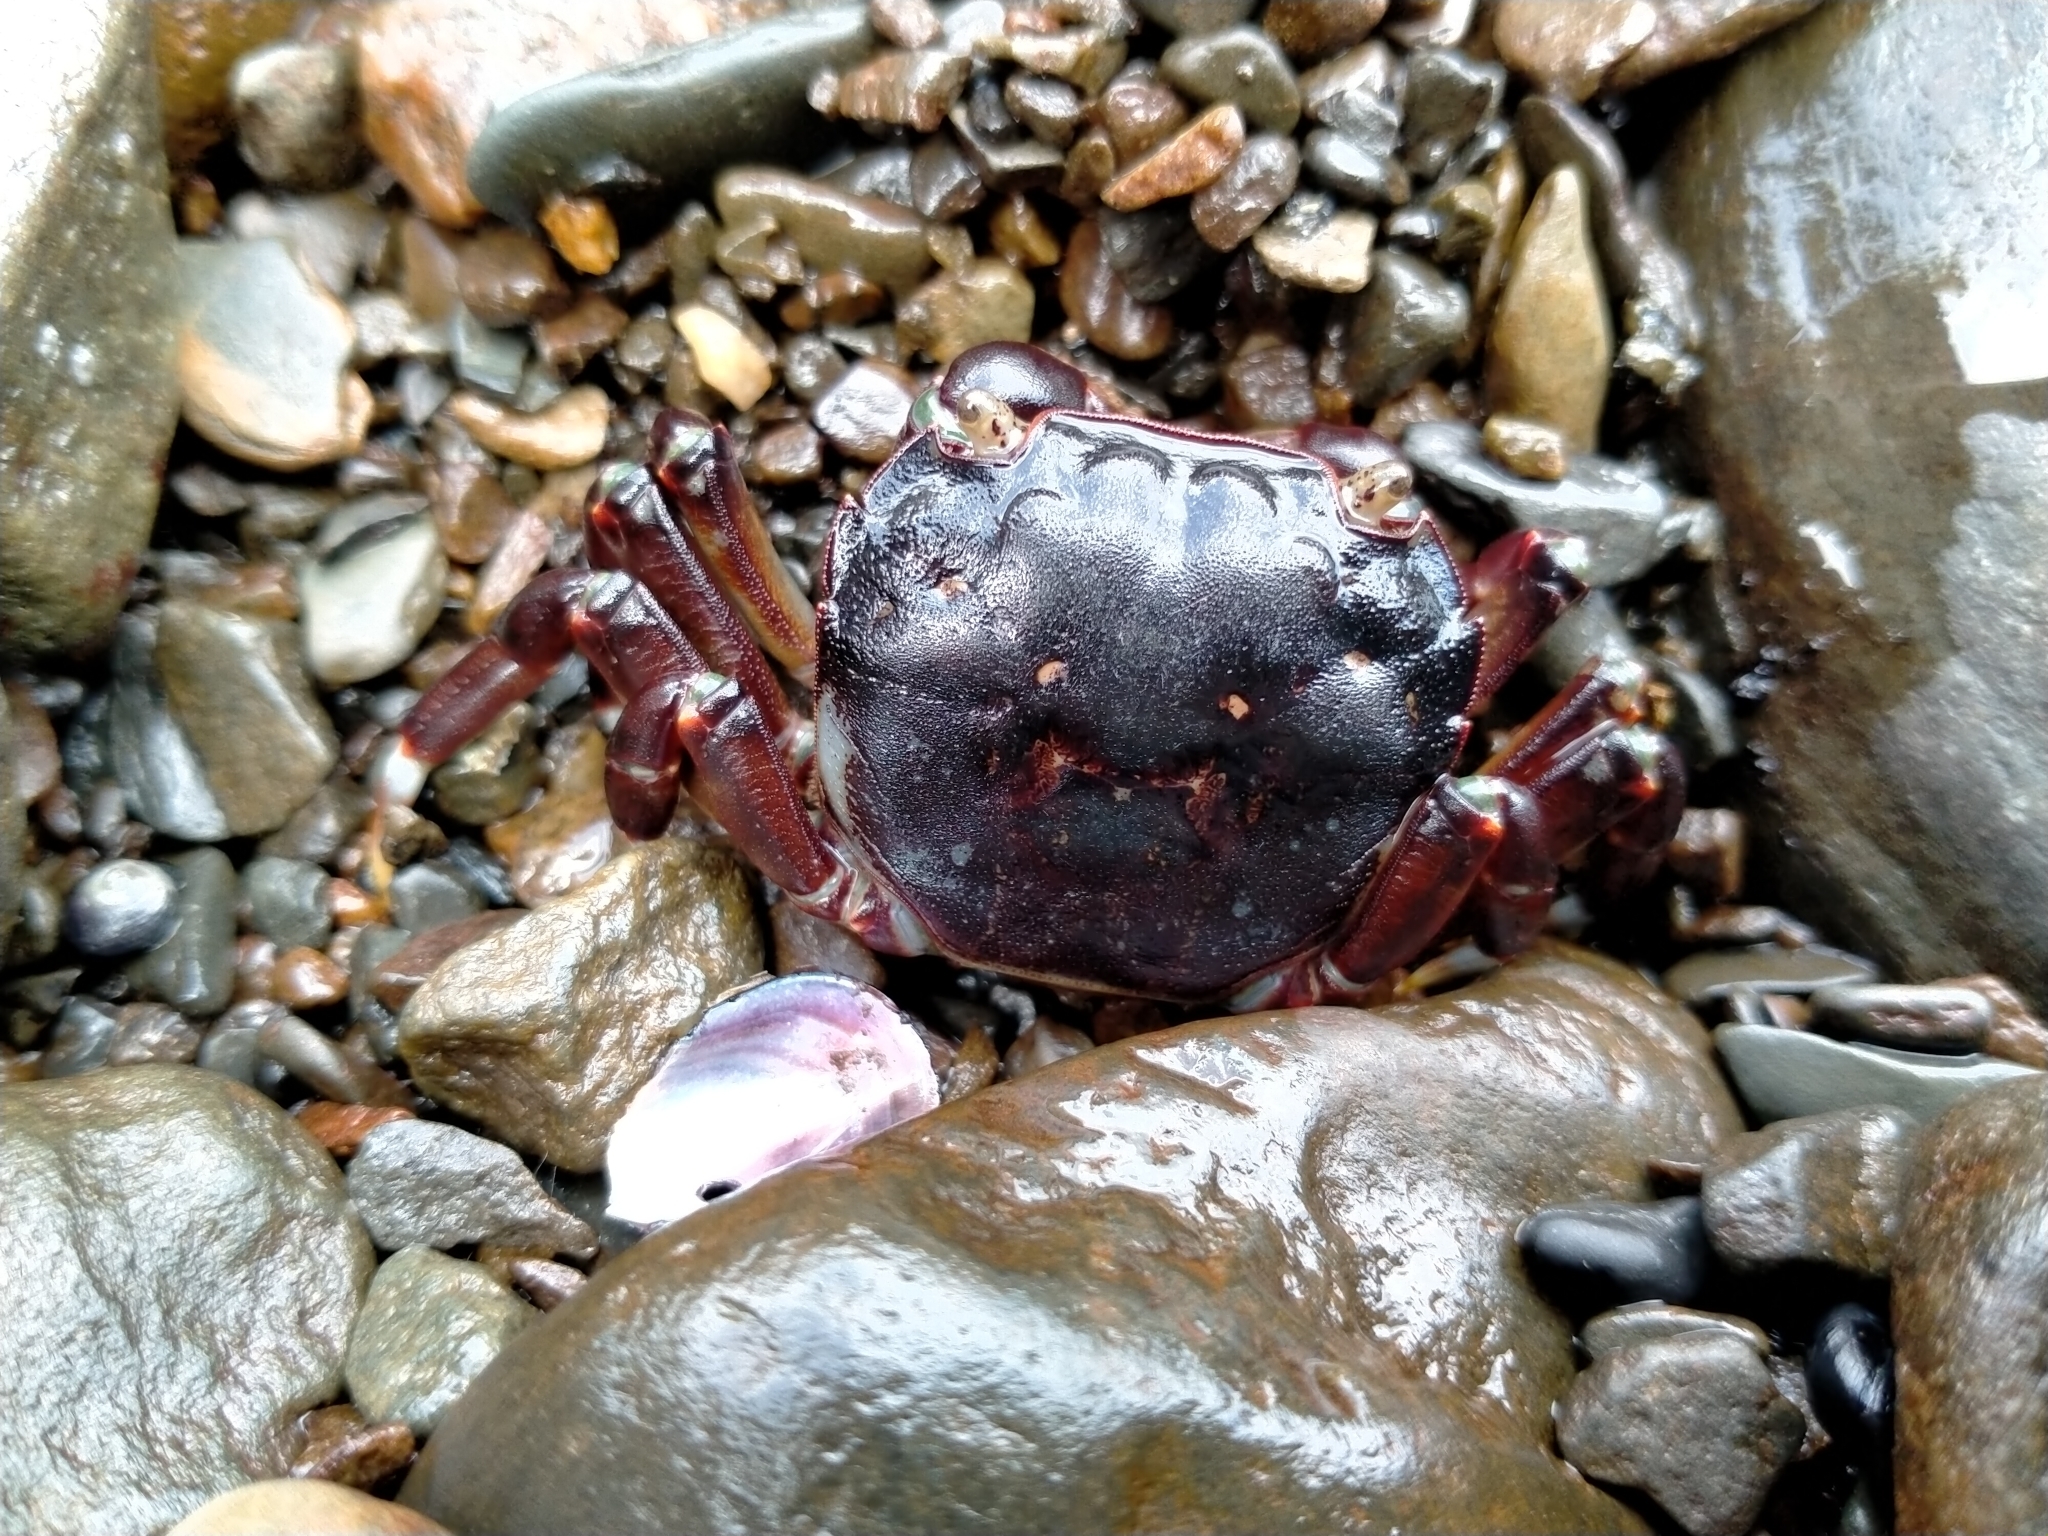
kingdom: Animalia
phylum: Arthropoda
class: Malacostraca
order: Decapoda
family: Varunidae
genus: Hemigrapsus
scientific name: Hemigrapsus sexdentatus
